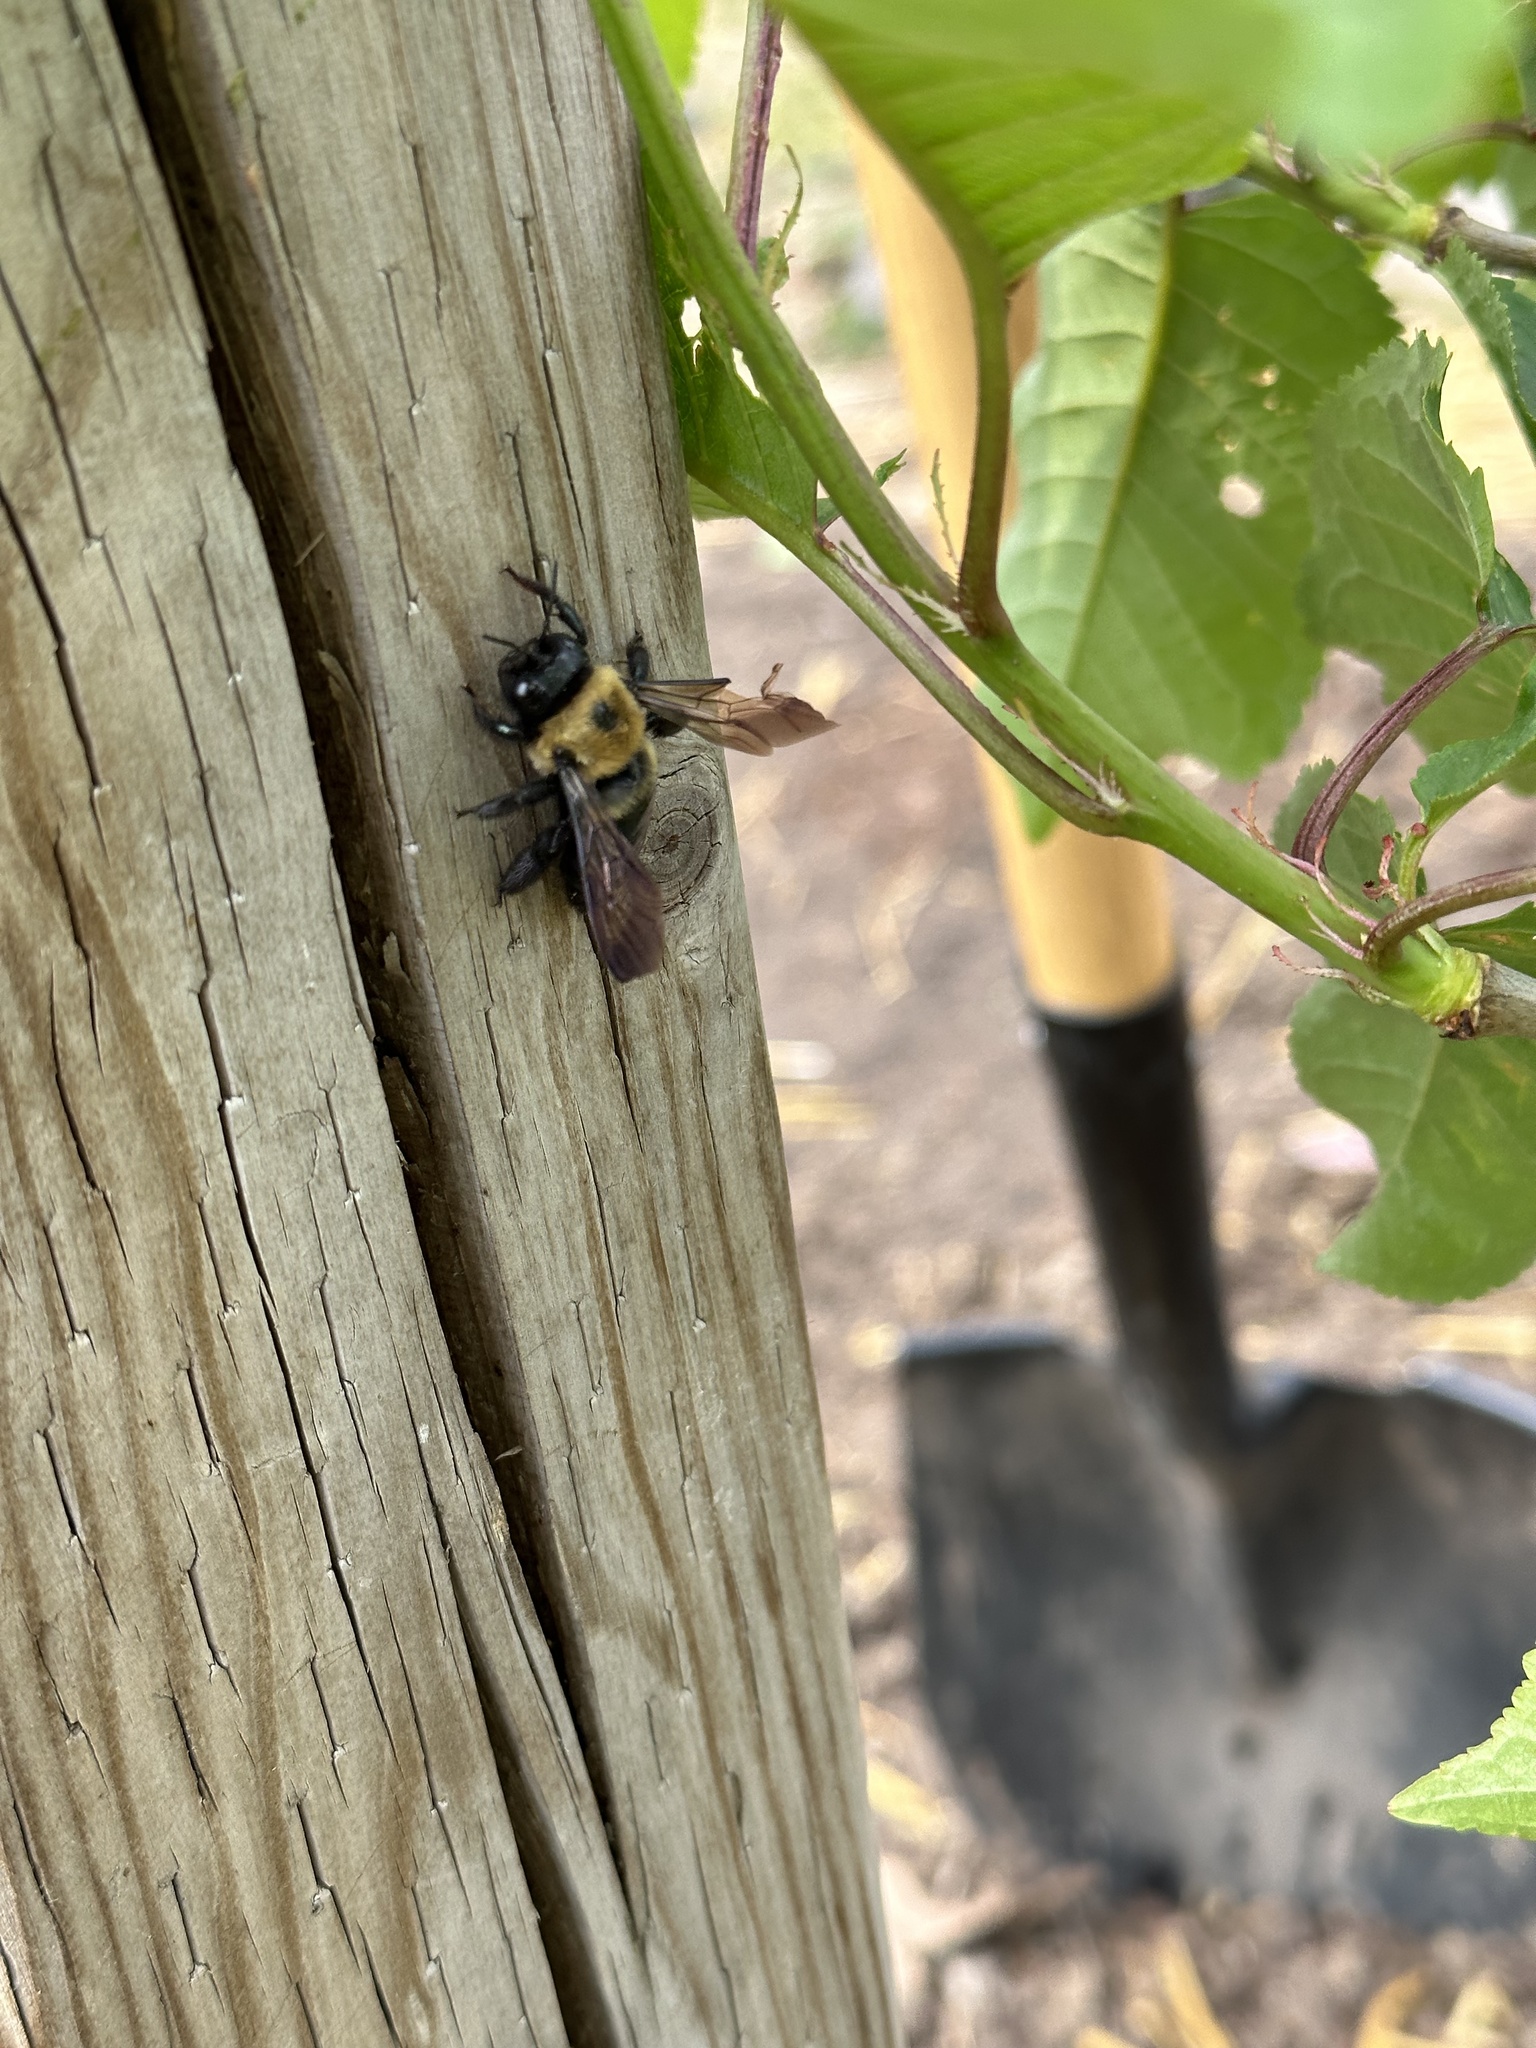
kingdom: Animalia
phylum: Arthropoda
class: Insecta
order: Hymenoptera
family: Apidae
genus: Xylocopa
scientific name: Xylocopa virginica
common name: Carpenter bee
